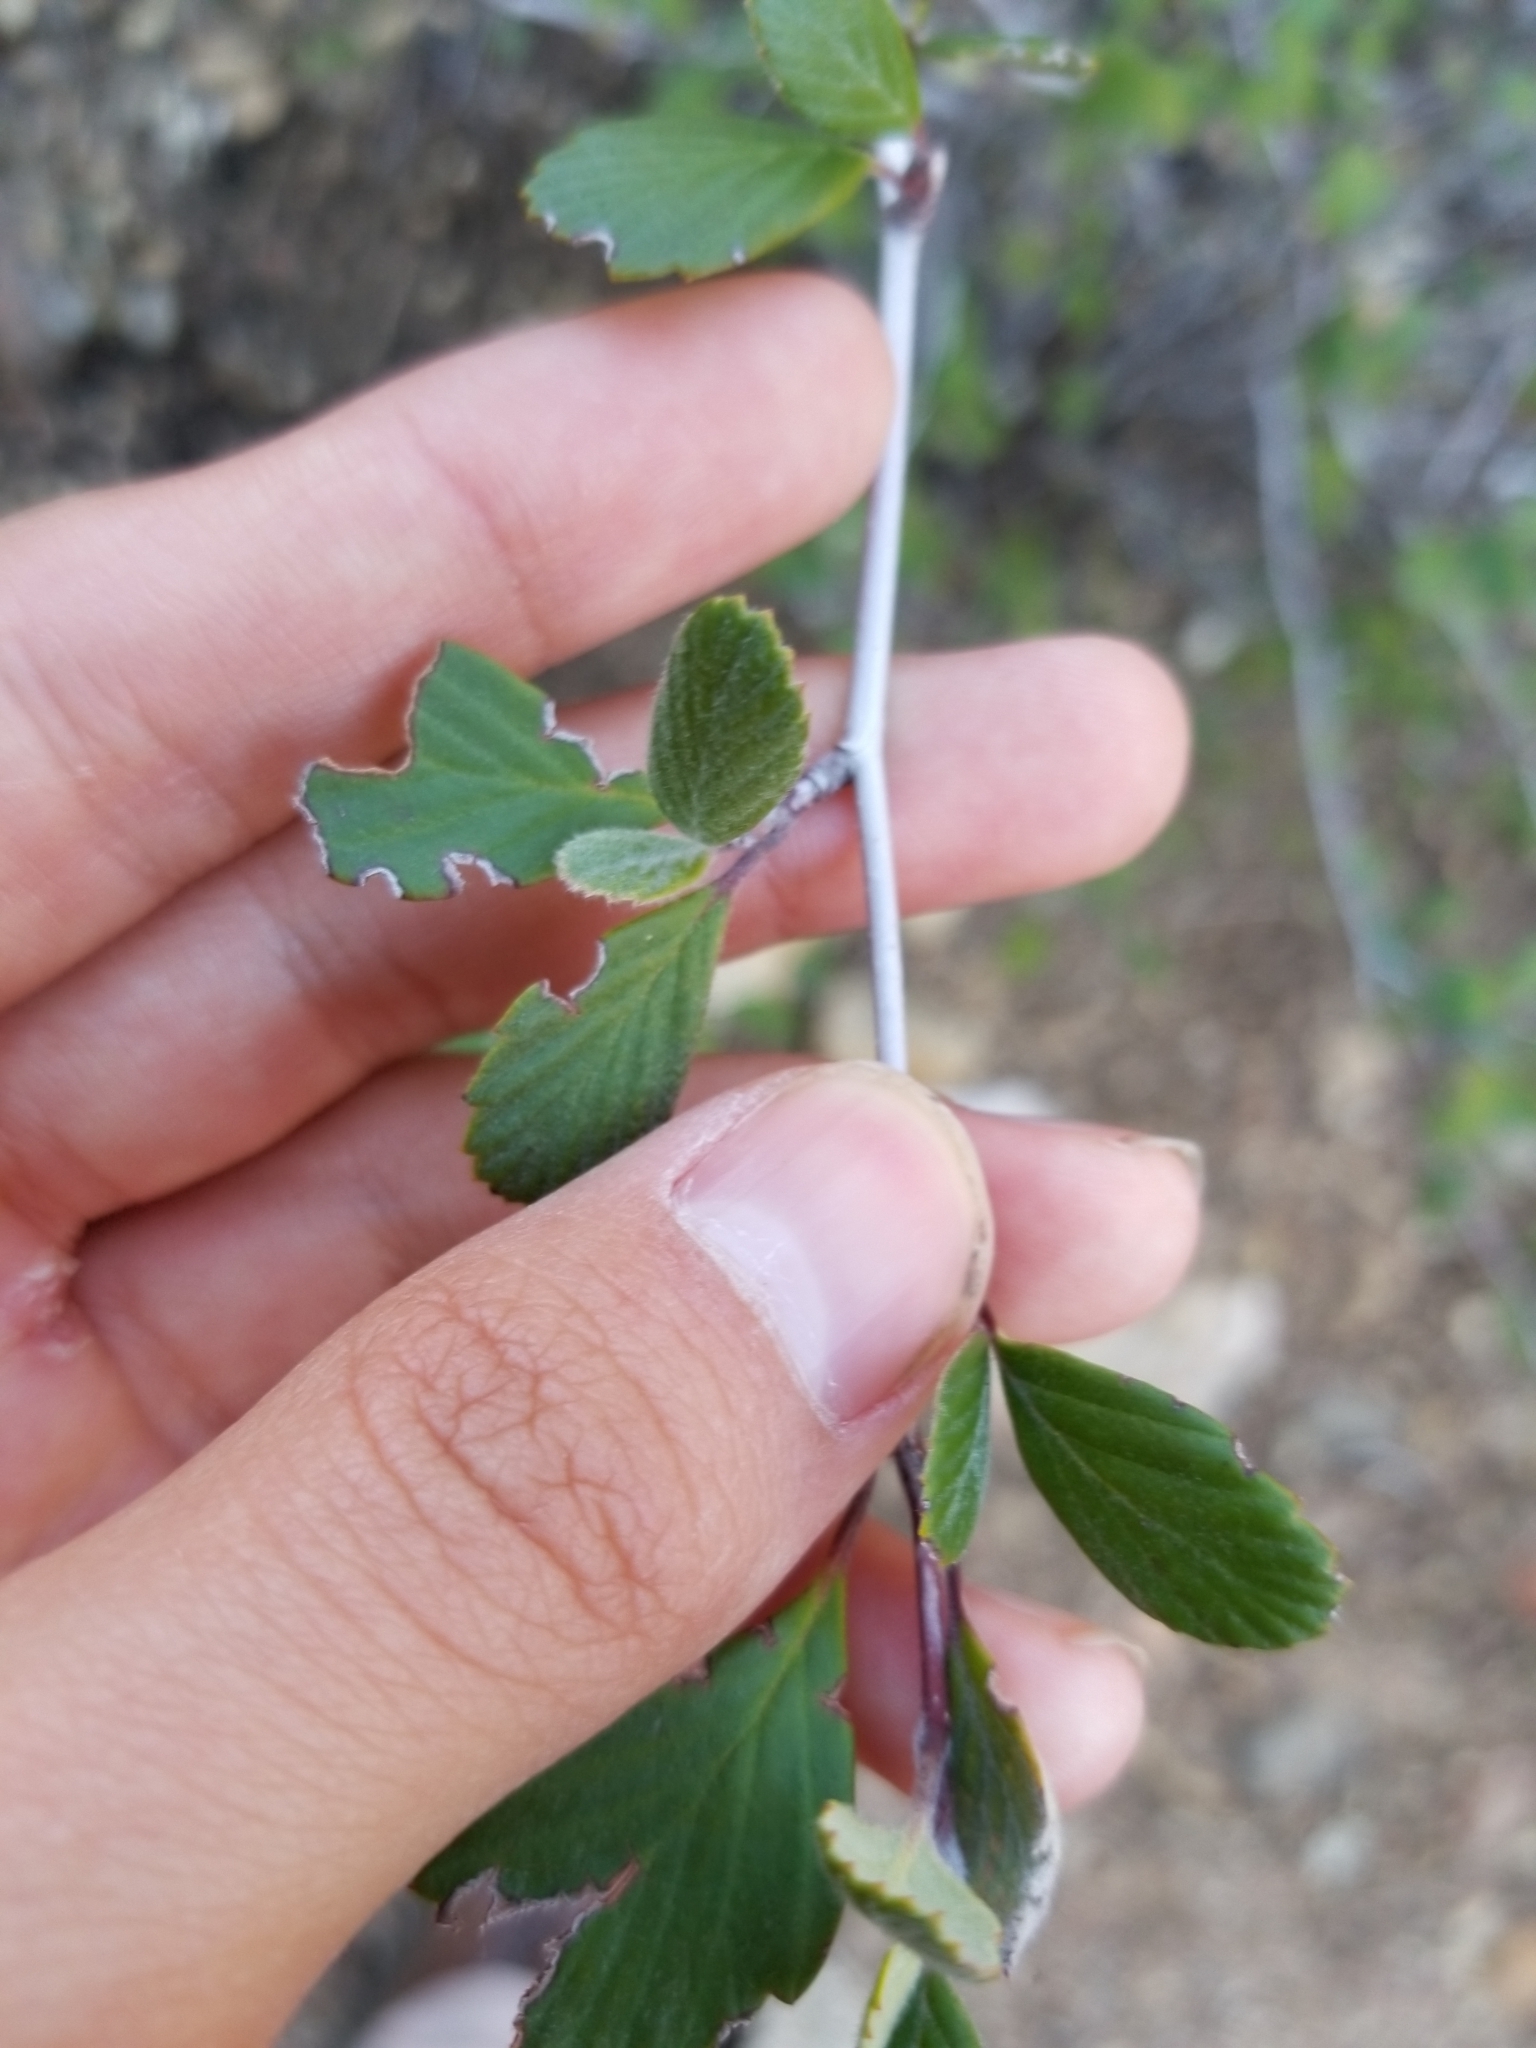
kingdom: Plantae
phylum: Tracheophyta
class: Magnoliopsida
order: Rosales
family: Rosaceae
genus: Cercocarpus
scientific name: Cercocarpus betuloides
